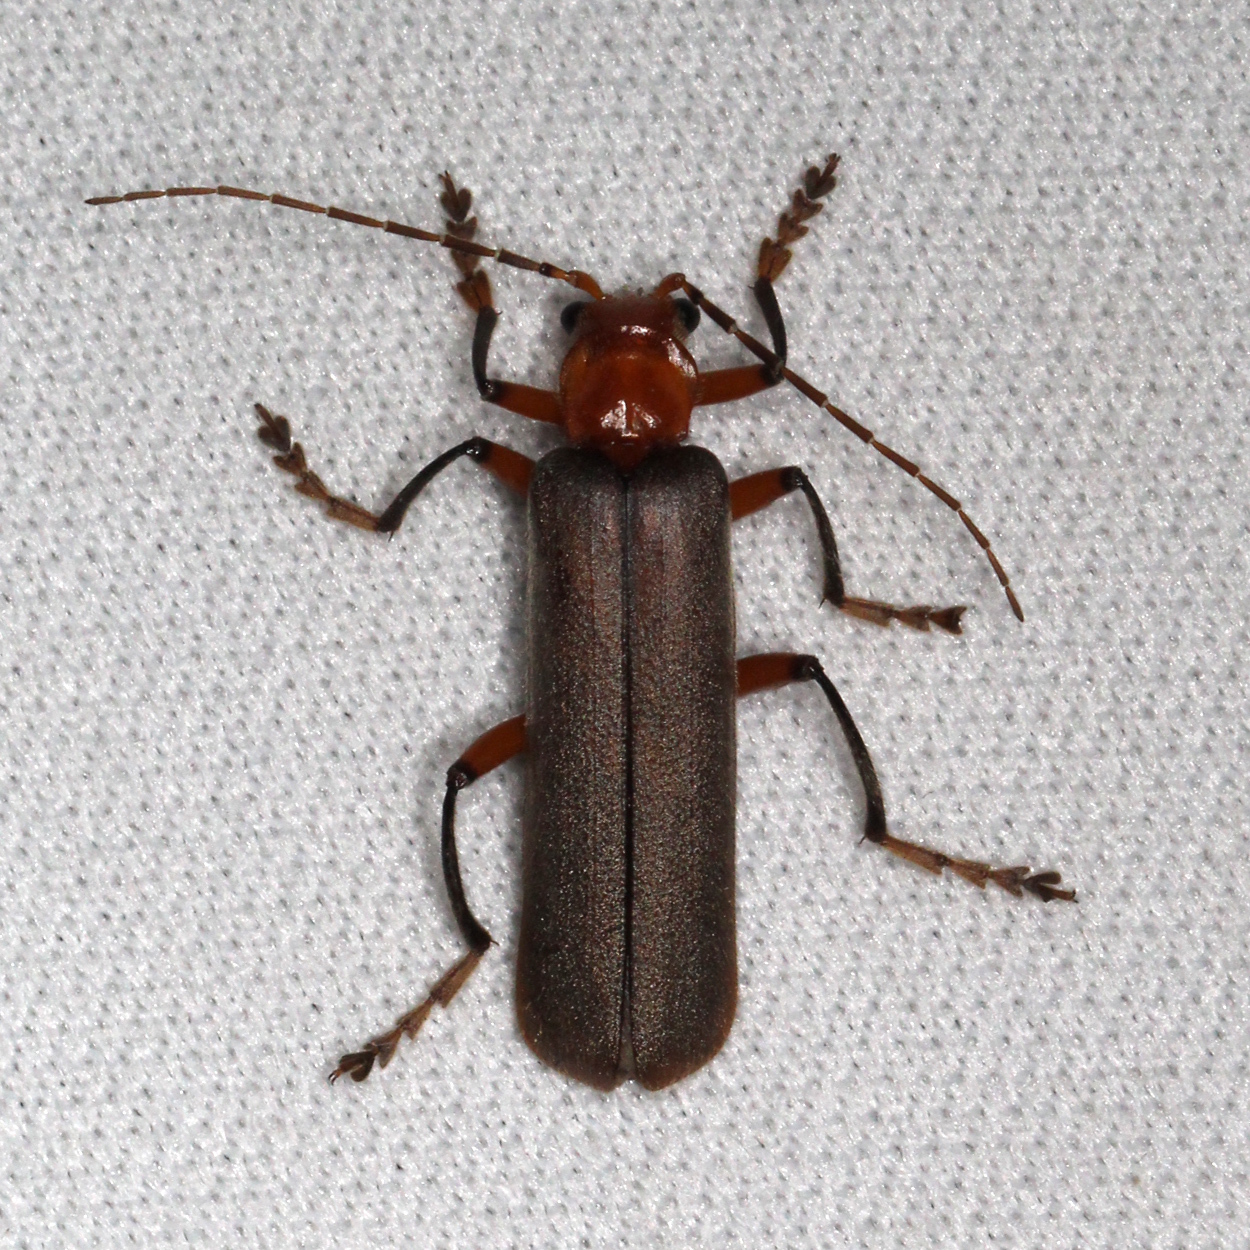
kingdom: Animalia
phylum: Arthropoda
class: Insecta
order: Coleoptera
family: Cantharidae
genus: Pacificanthia
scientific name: Pacificanthia consors
